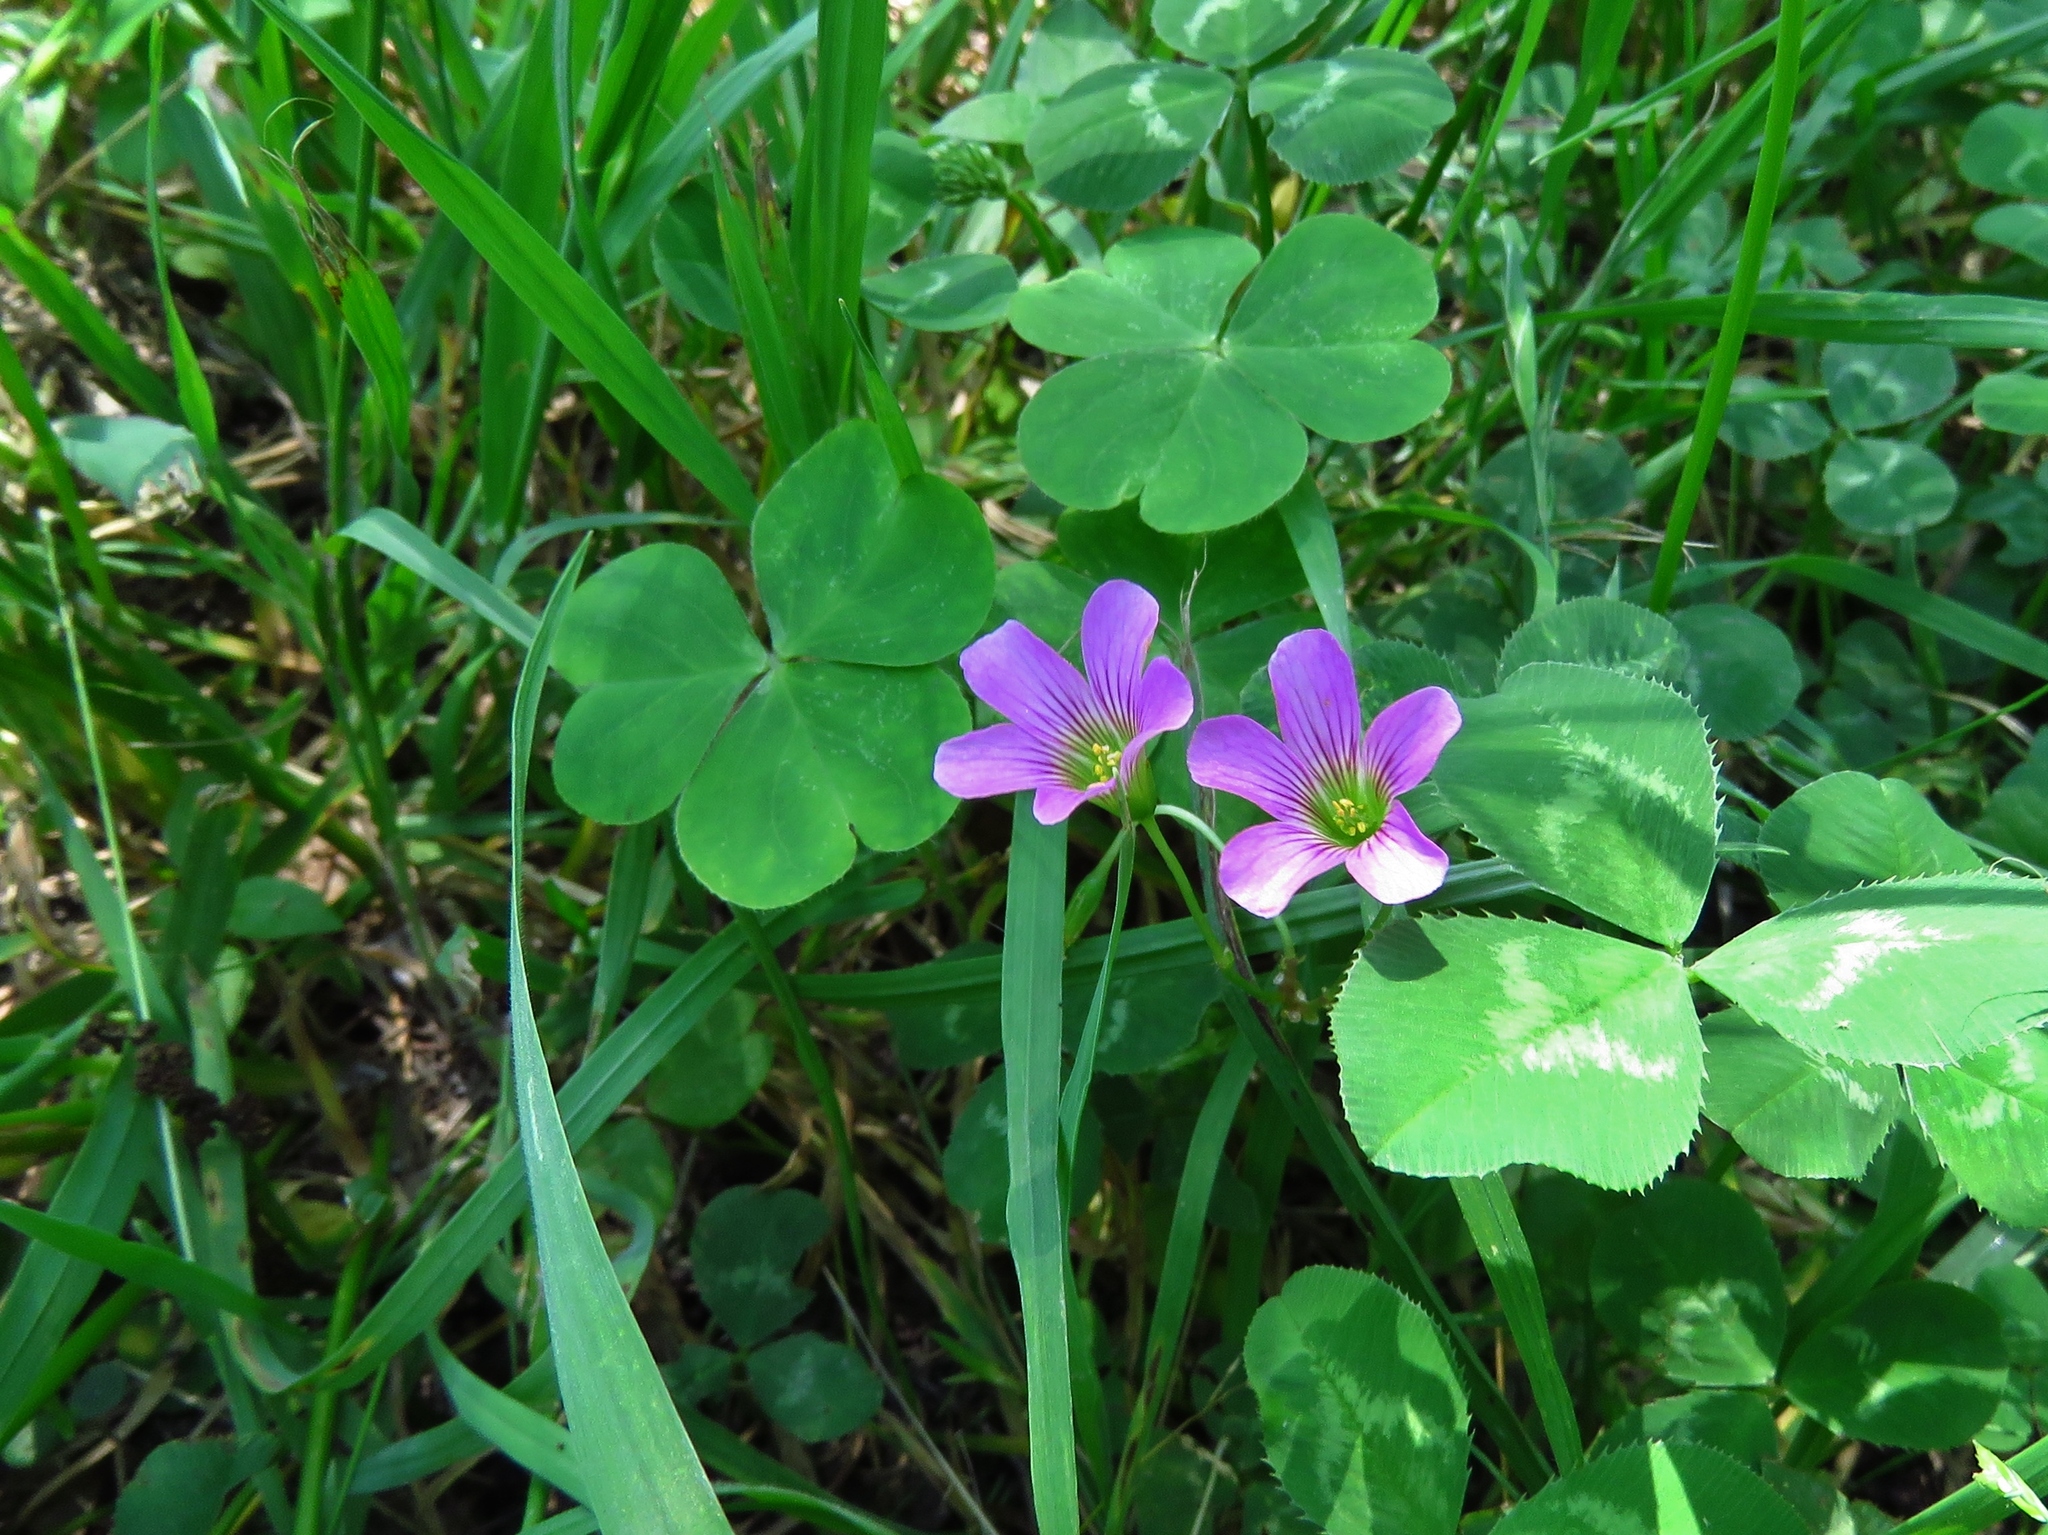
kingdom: Plantae
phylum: Tracheophyta
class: Magnoliopsida
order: Oxalidales
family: Oxalidaceae
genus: Oxalis
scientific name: Oxalis debilis
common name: Large-flowered pink-sorrel
